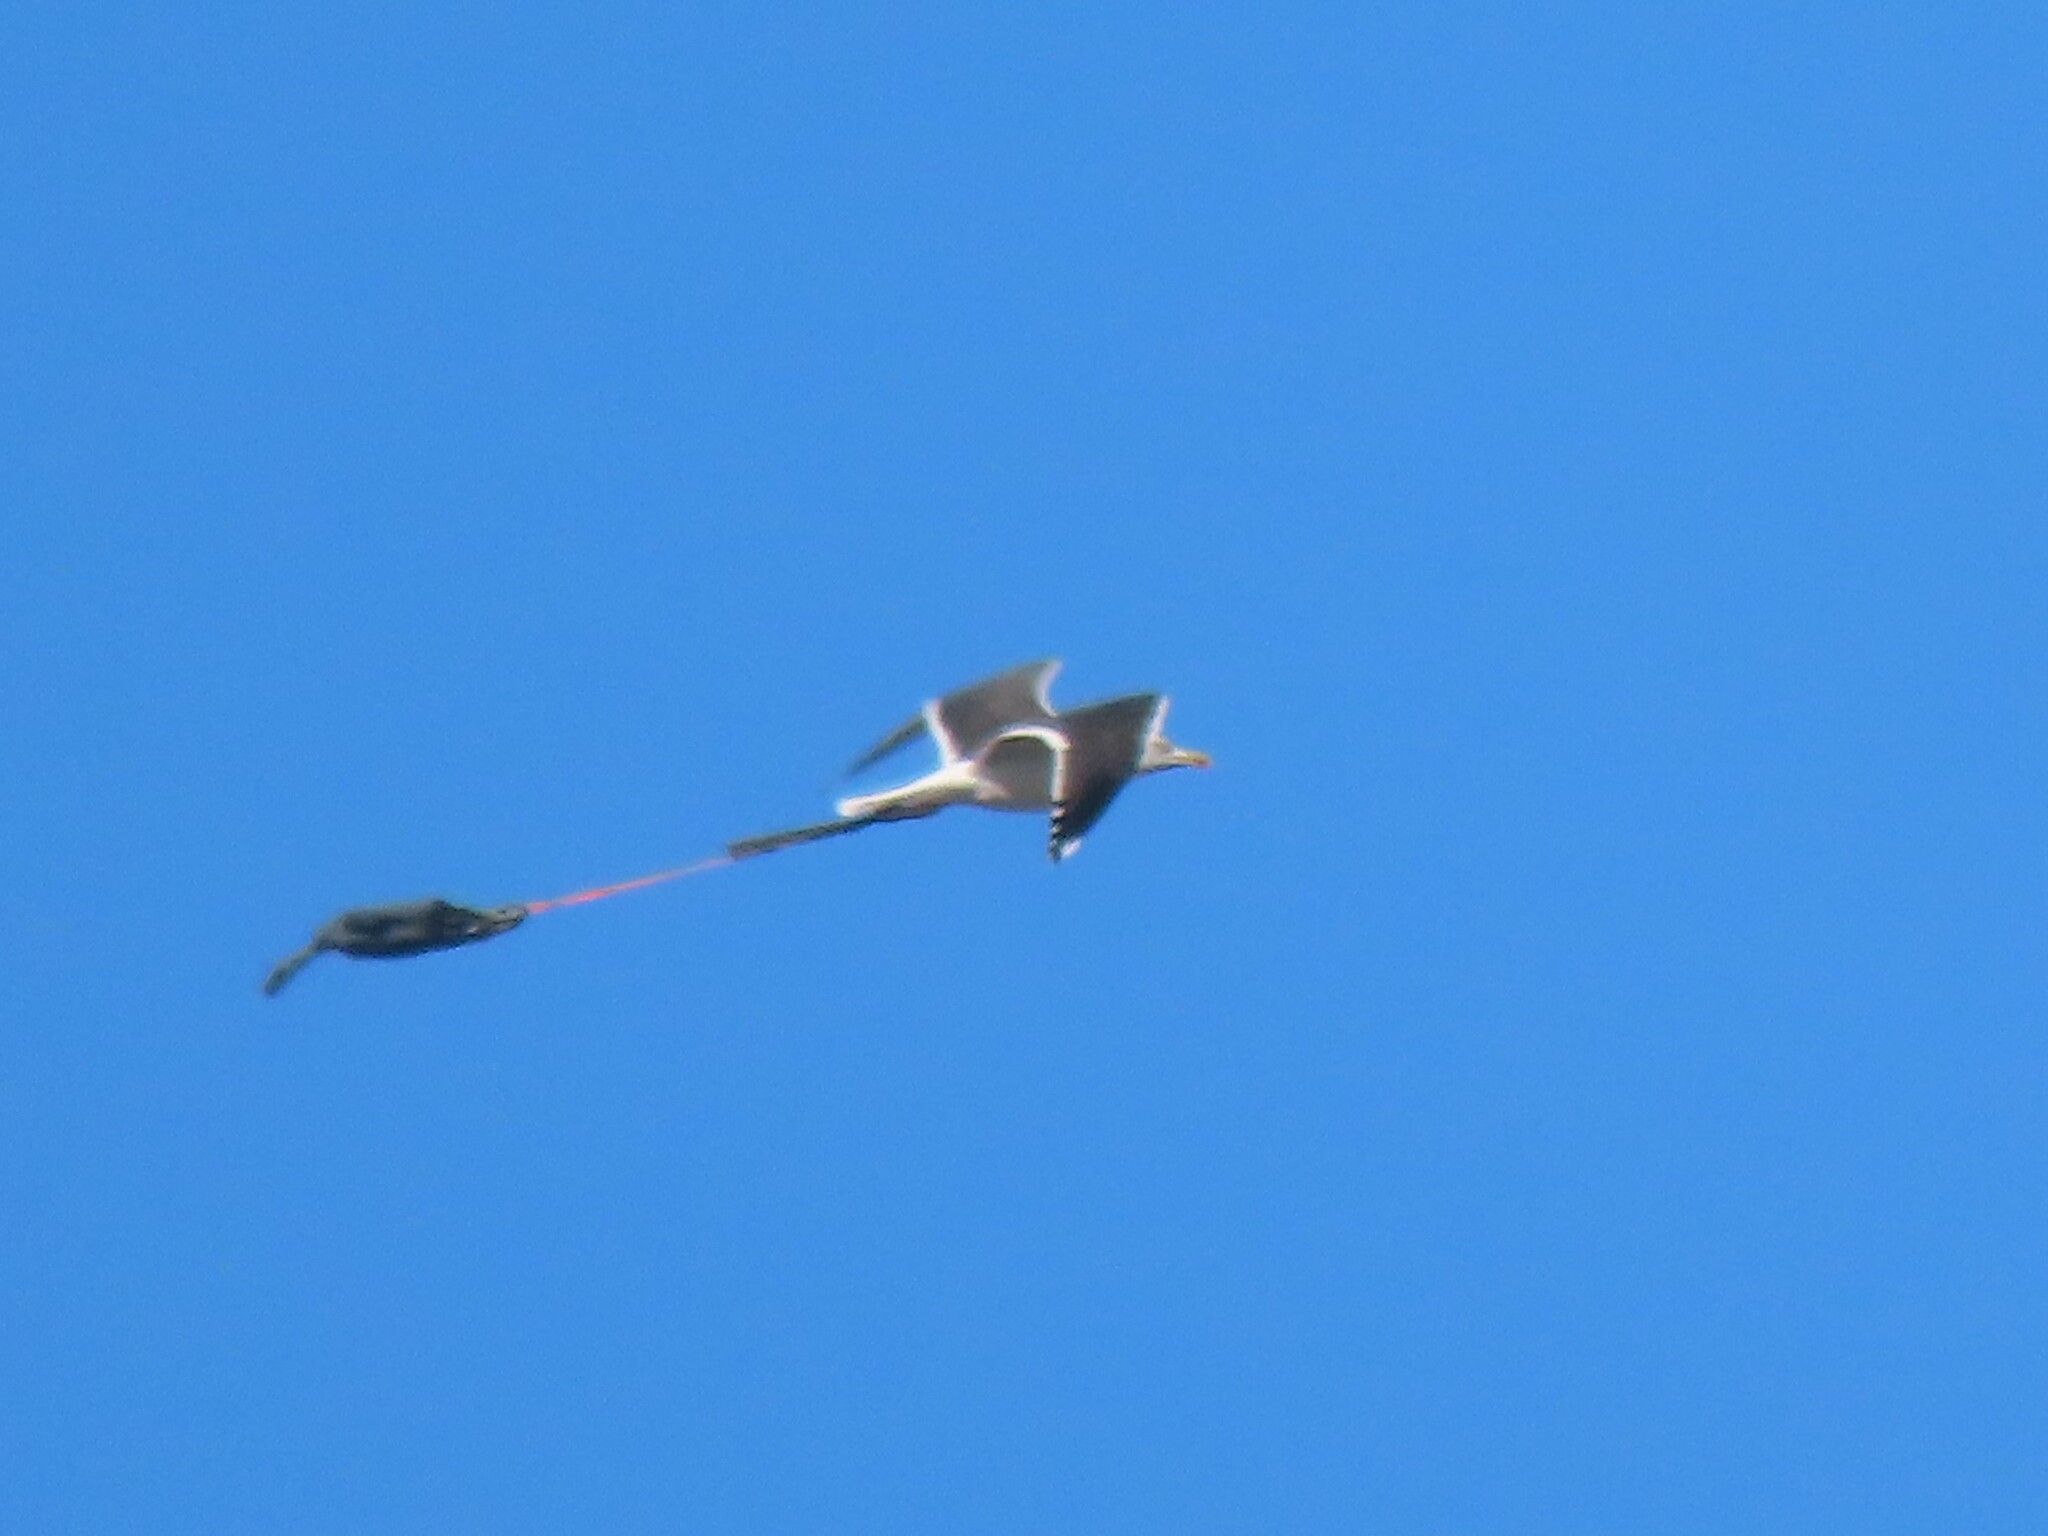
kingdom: Animalia
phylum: Chordata
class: Aves
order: Charadriiformes
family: Laridae
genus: Larus
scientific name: Larus fuscus
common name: Lesser black-backed gull
